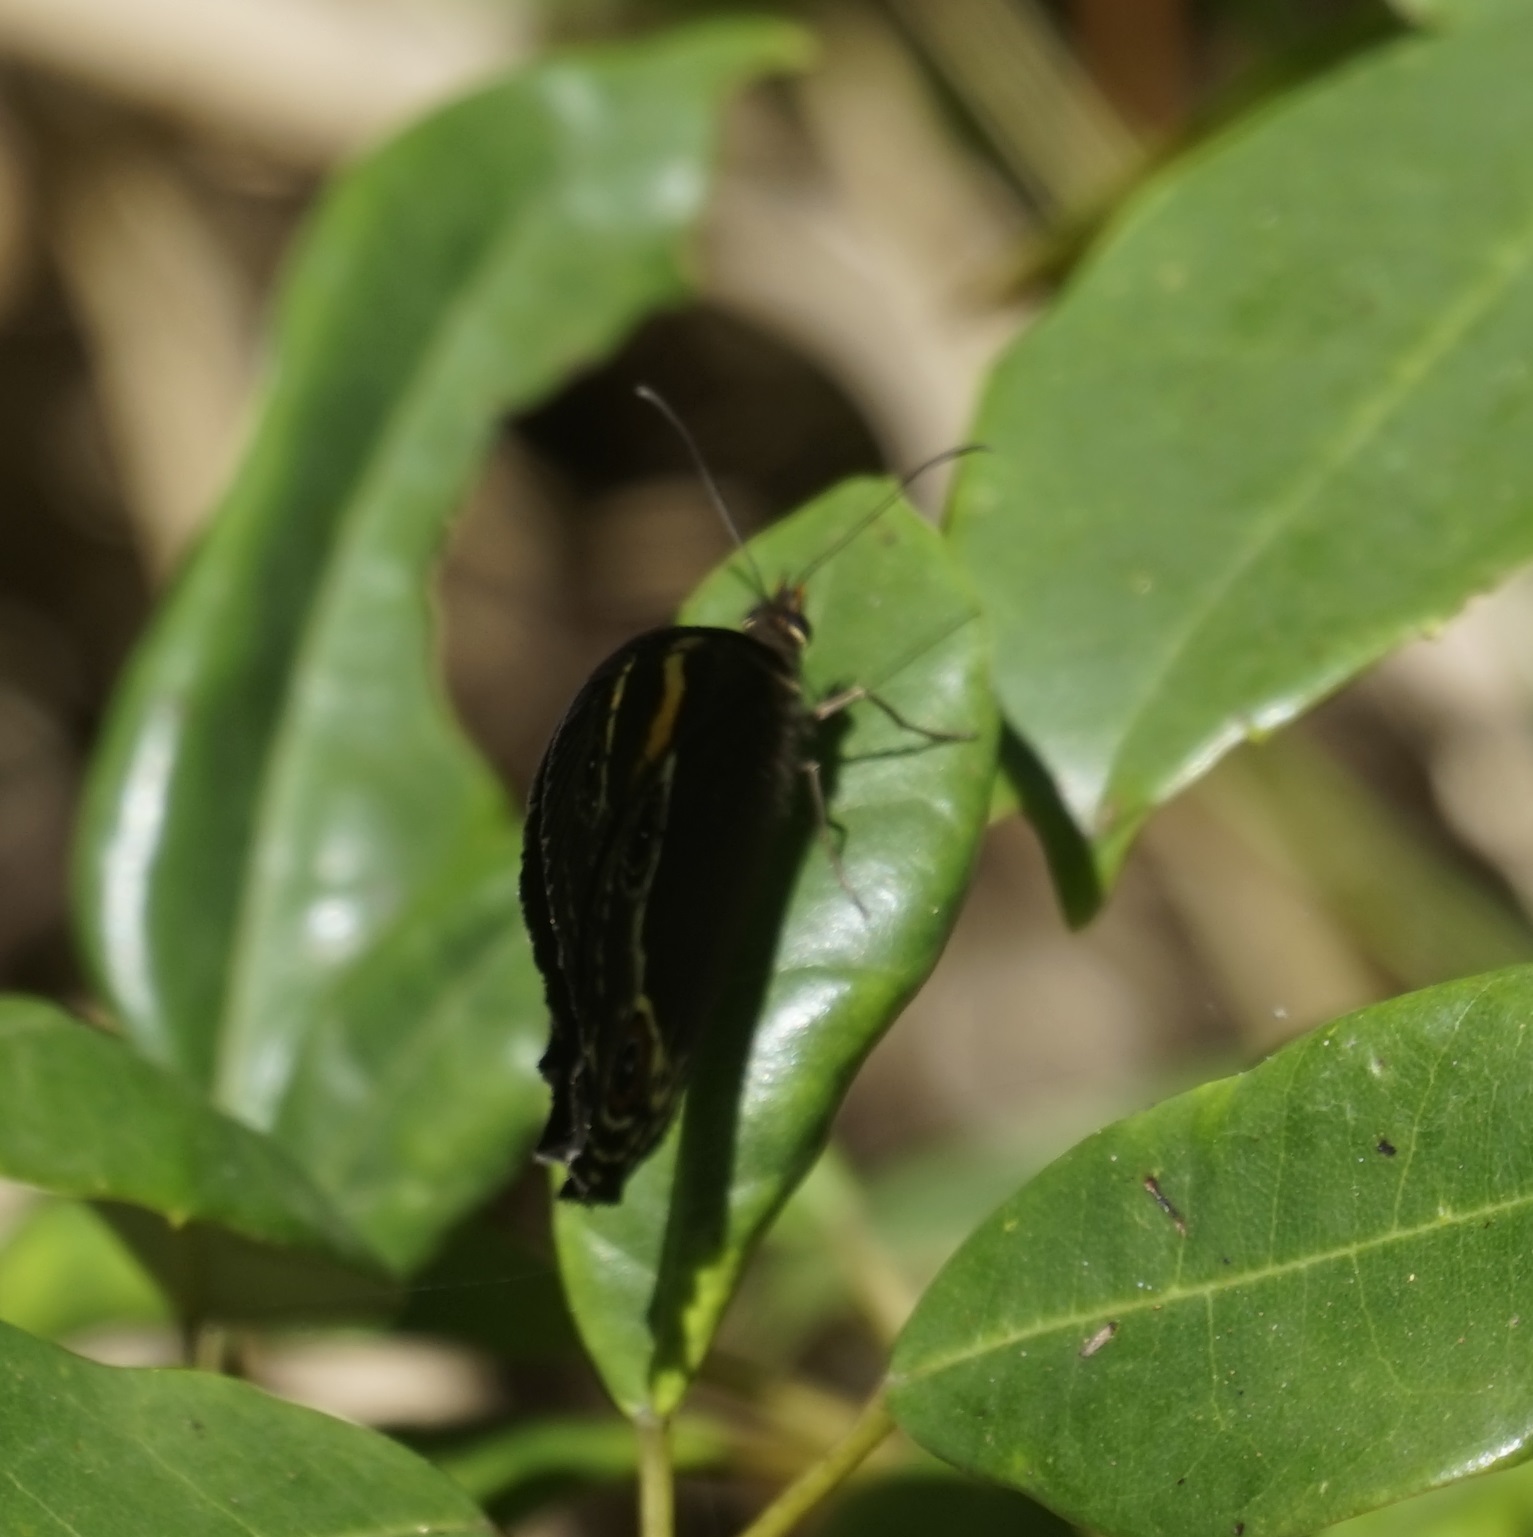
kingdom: Animalia
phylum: Arthropoda
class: Insecta
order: Lepidoptera
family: Nymphalidae
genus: Tisiphone
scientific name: Tisiphone abeona
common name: Swordgrass brown
